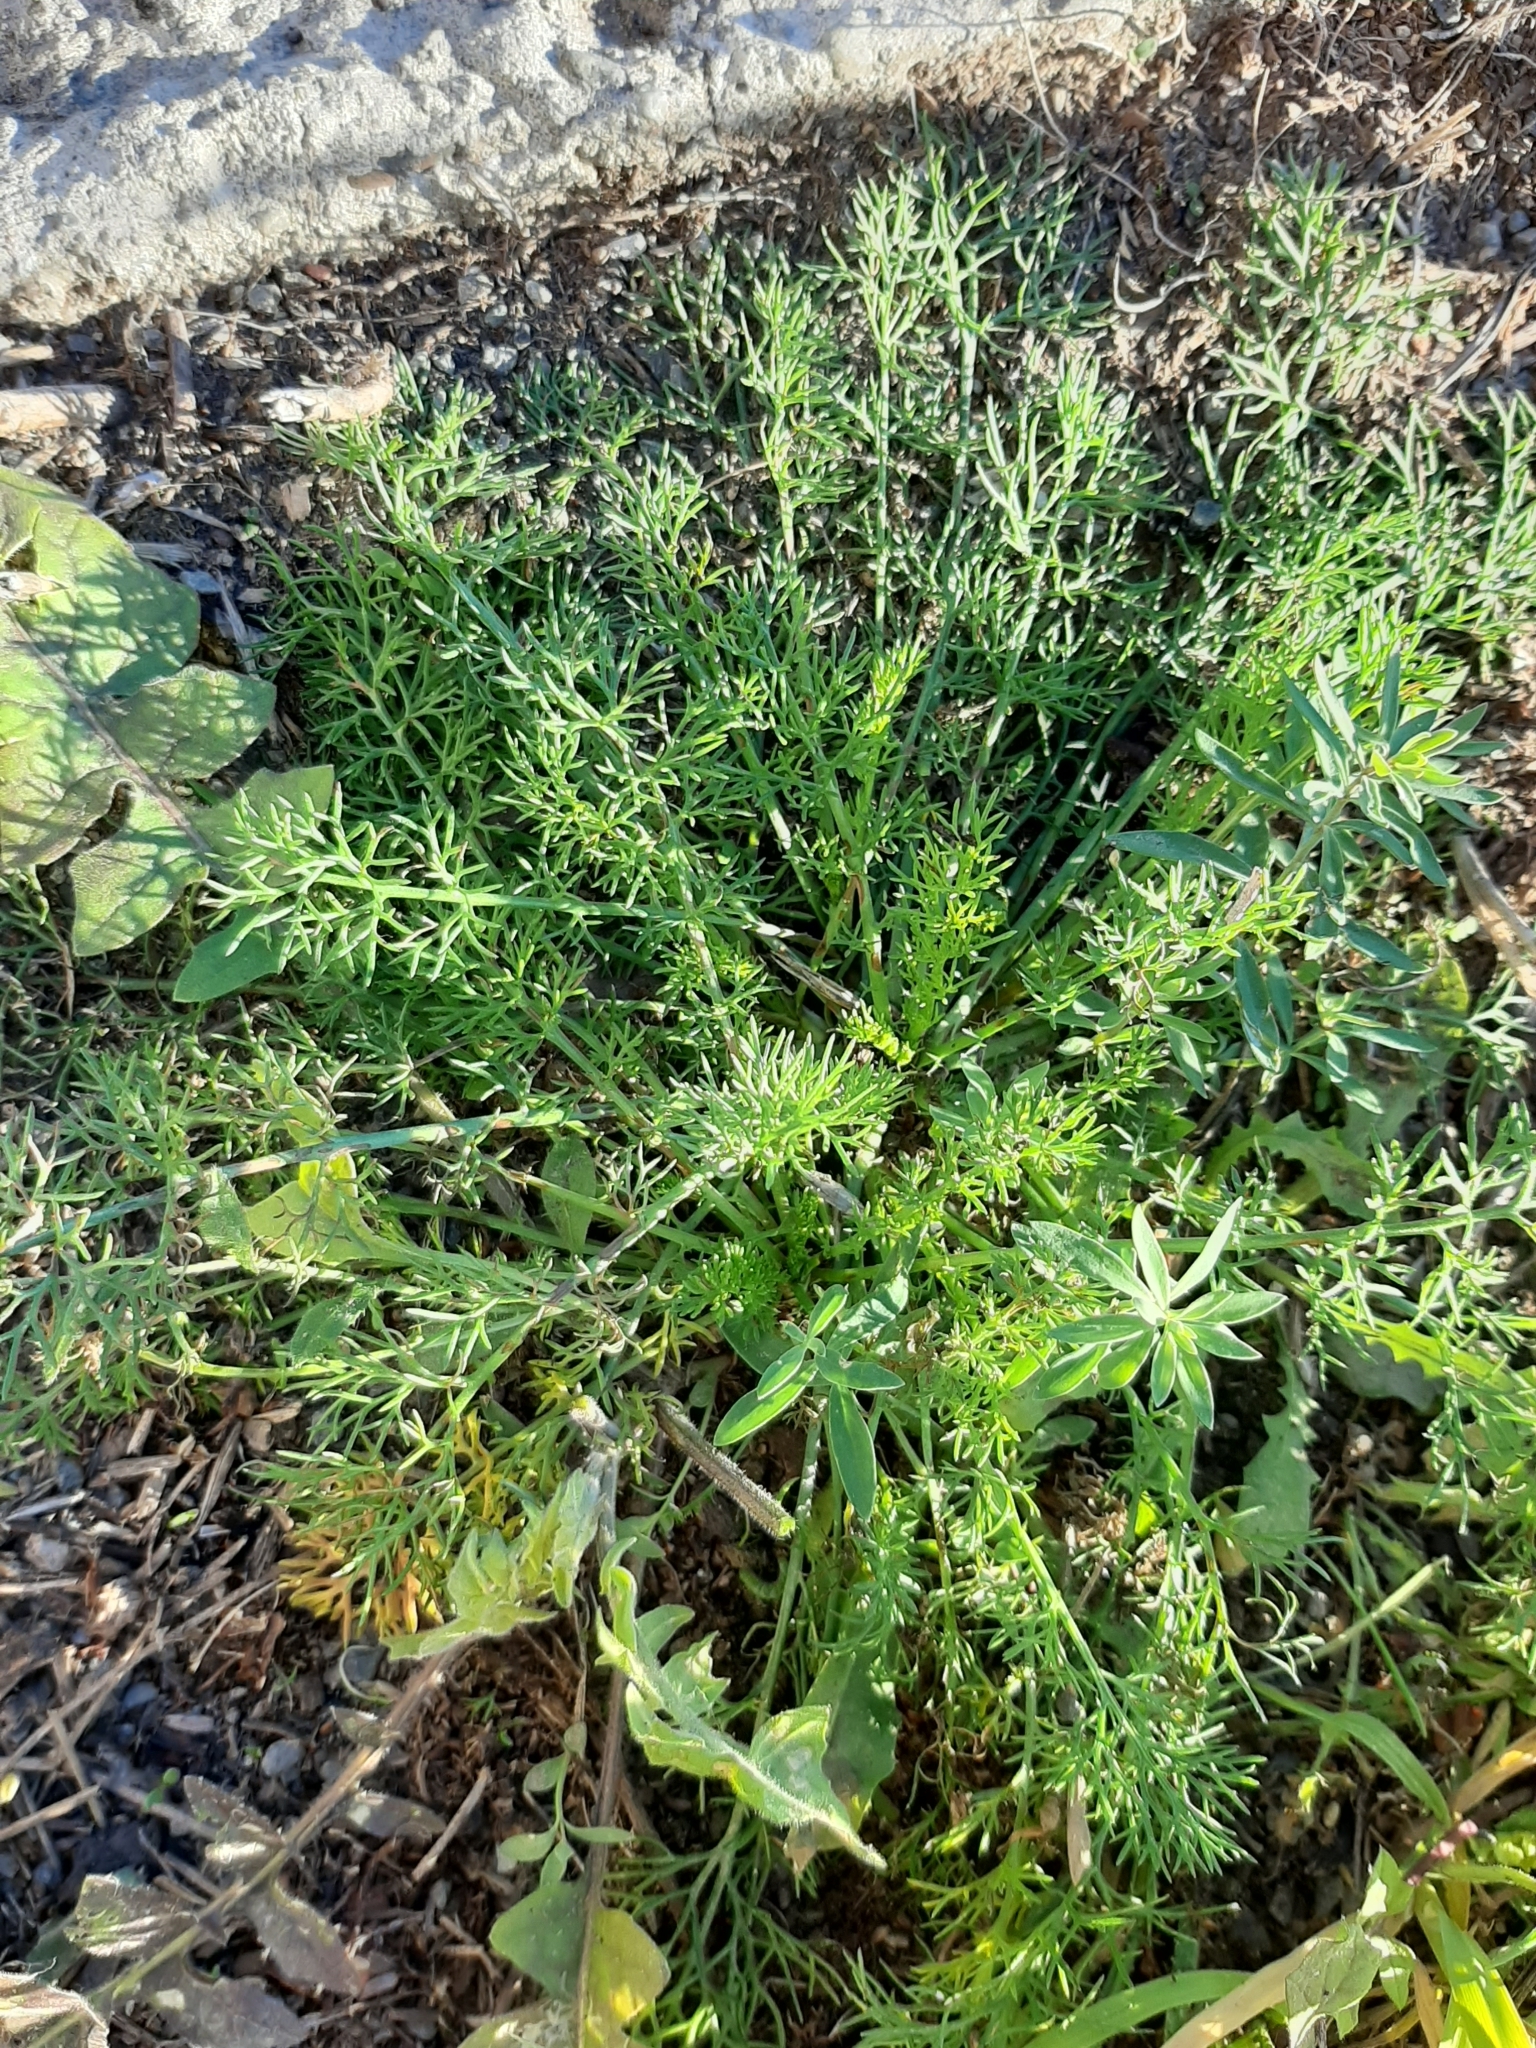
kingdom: Plantae
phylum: Tracheophyta
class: Magnoliopsida
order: Asterales
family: Asteraceae
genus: Tripleurospermum
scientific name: Tripleurospermum inodorum
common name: Scentless mayweed
